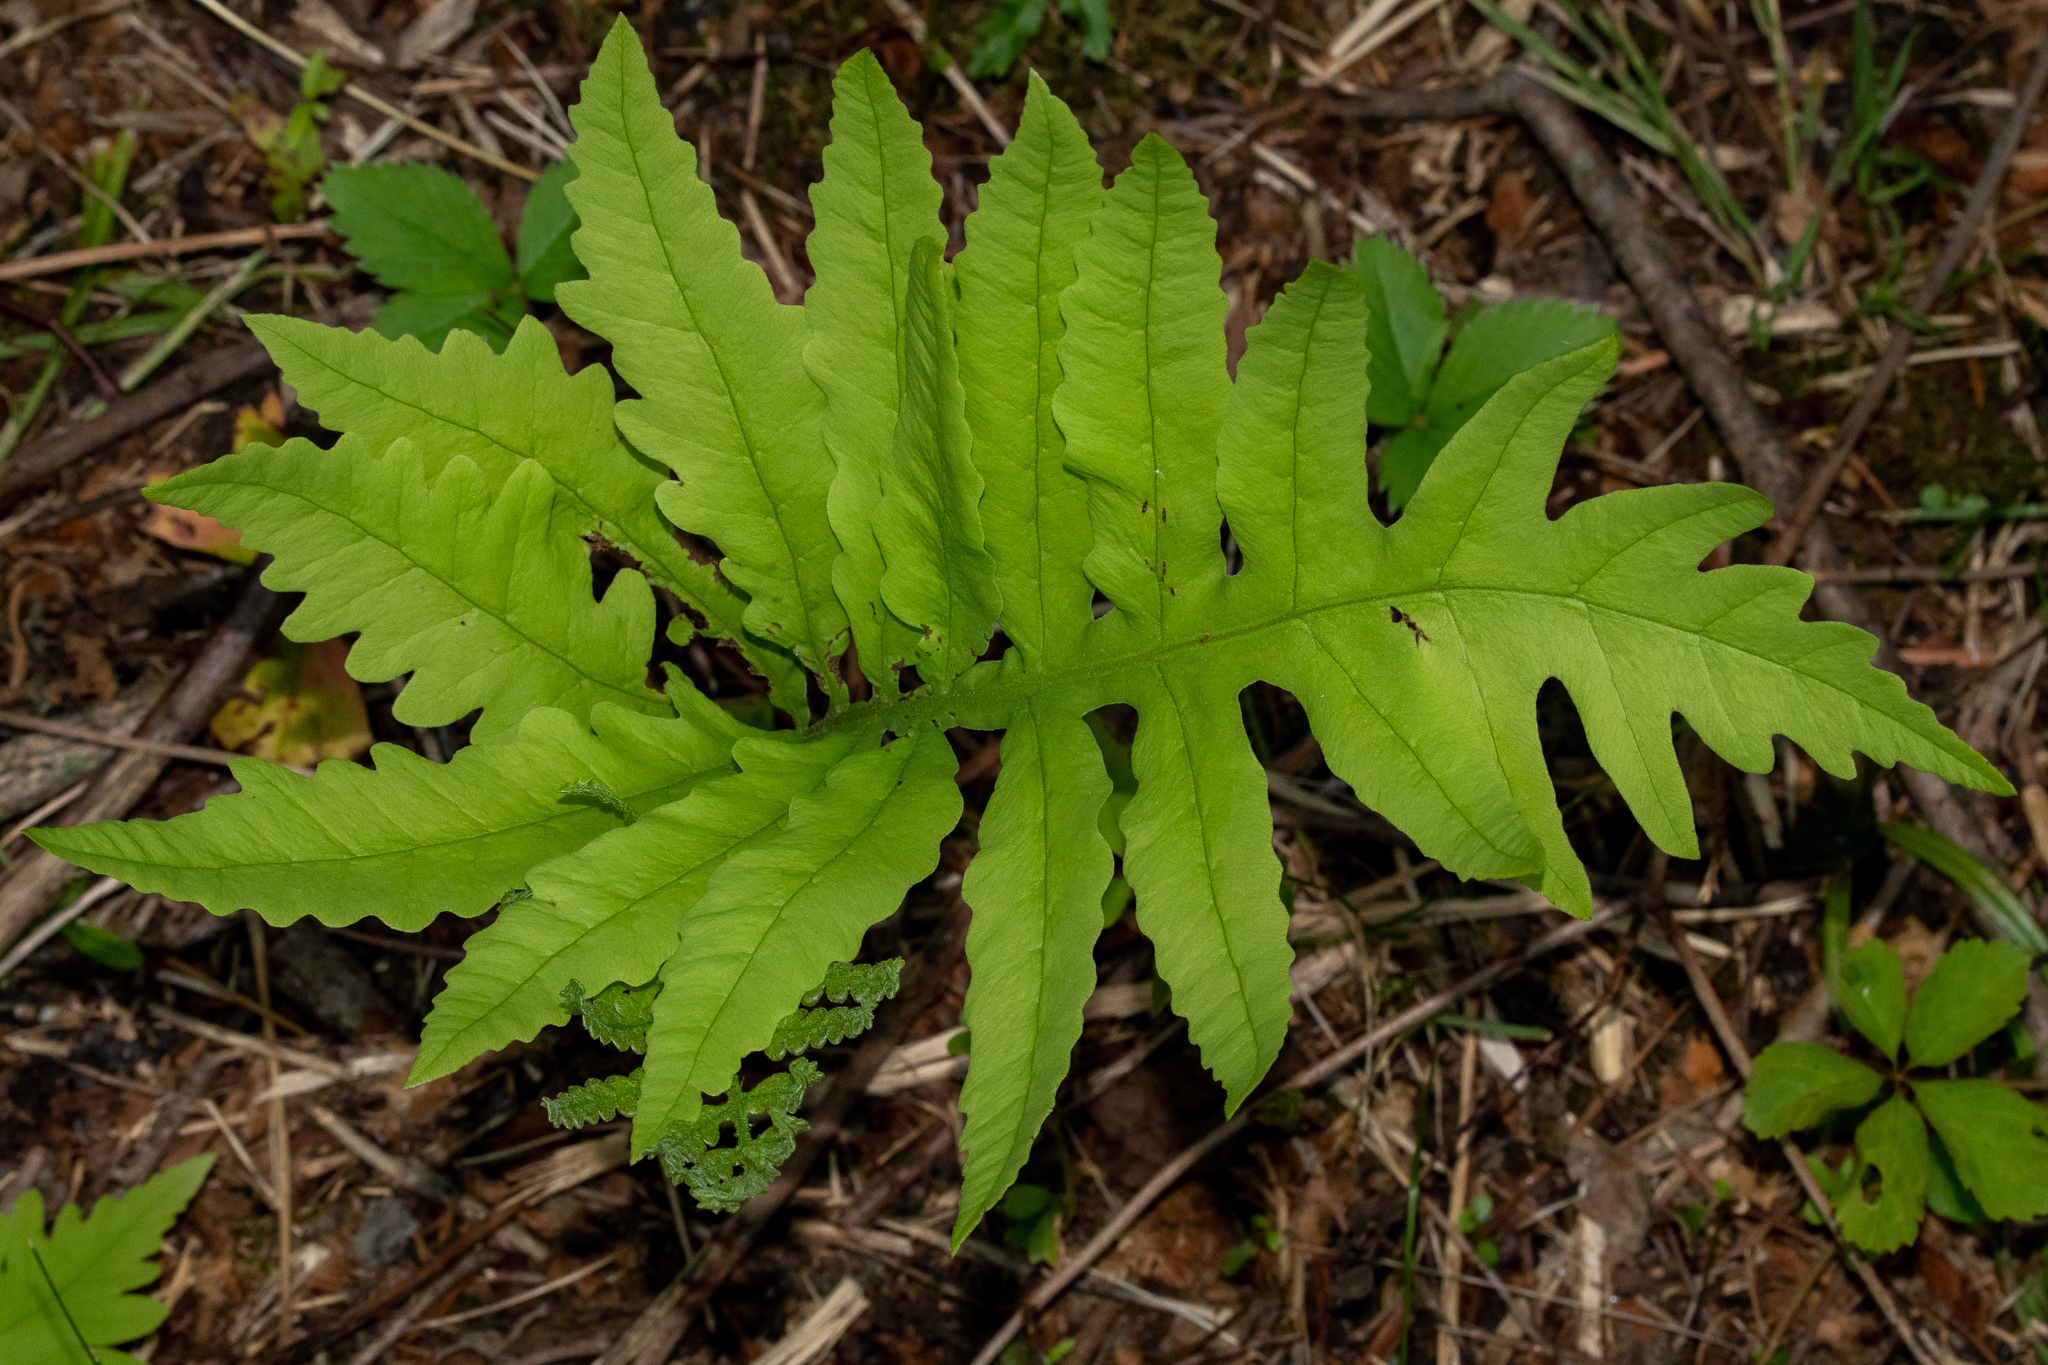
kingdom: Plantae
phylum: Tracheophyta
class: Polypodiopsida
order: Polypodiales
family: Onocleaceae
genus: Onoclea
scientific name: Onoclea sensibilis
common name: Sensitive fern
